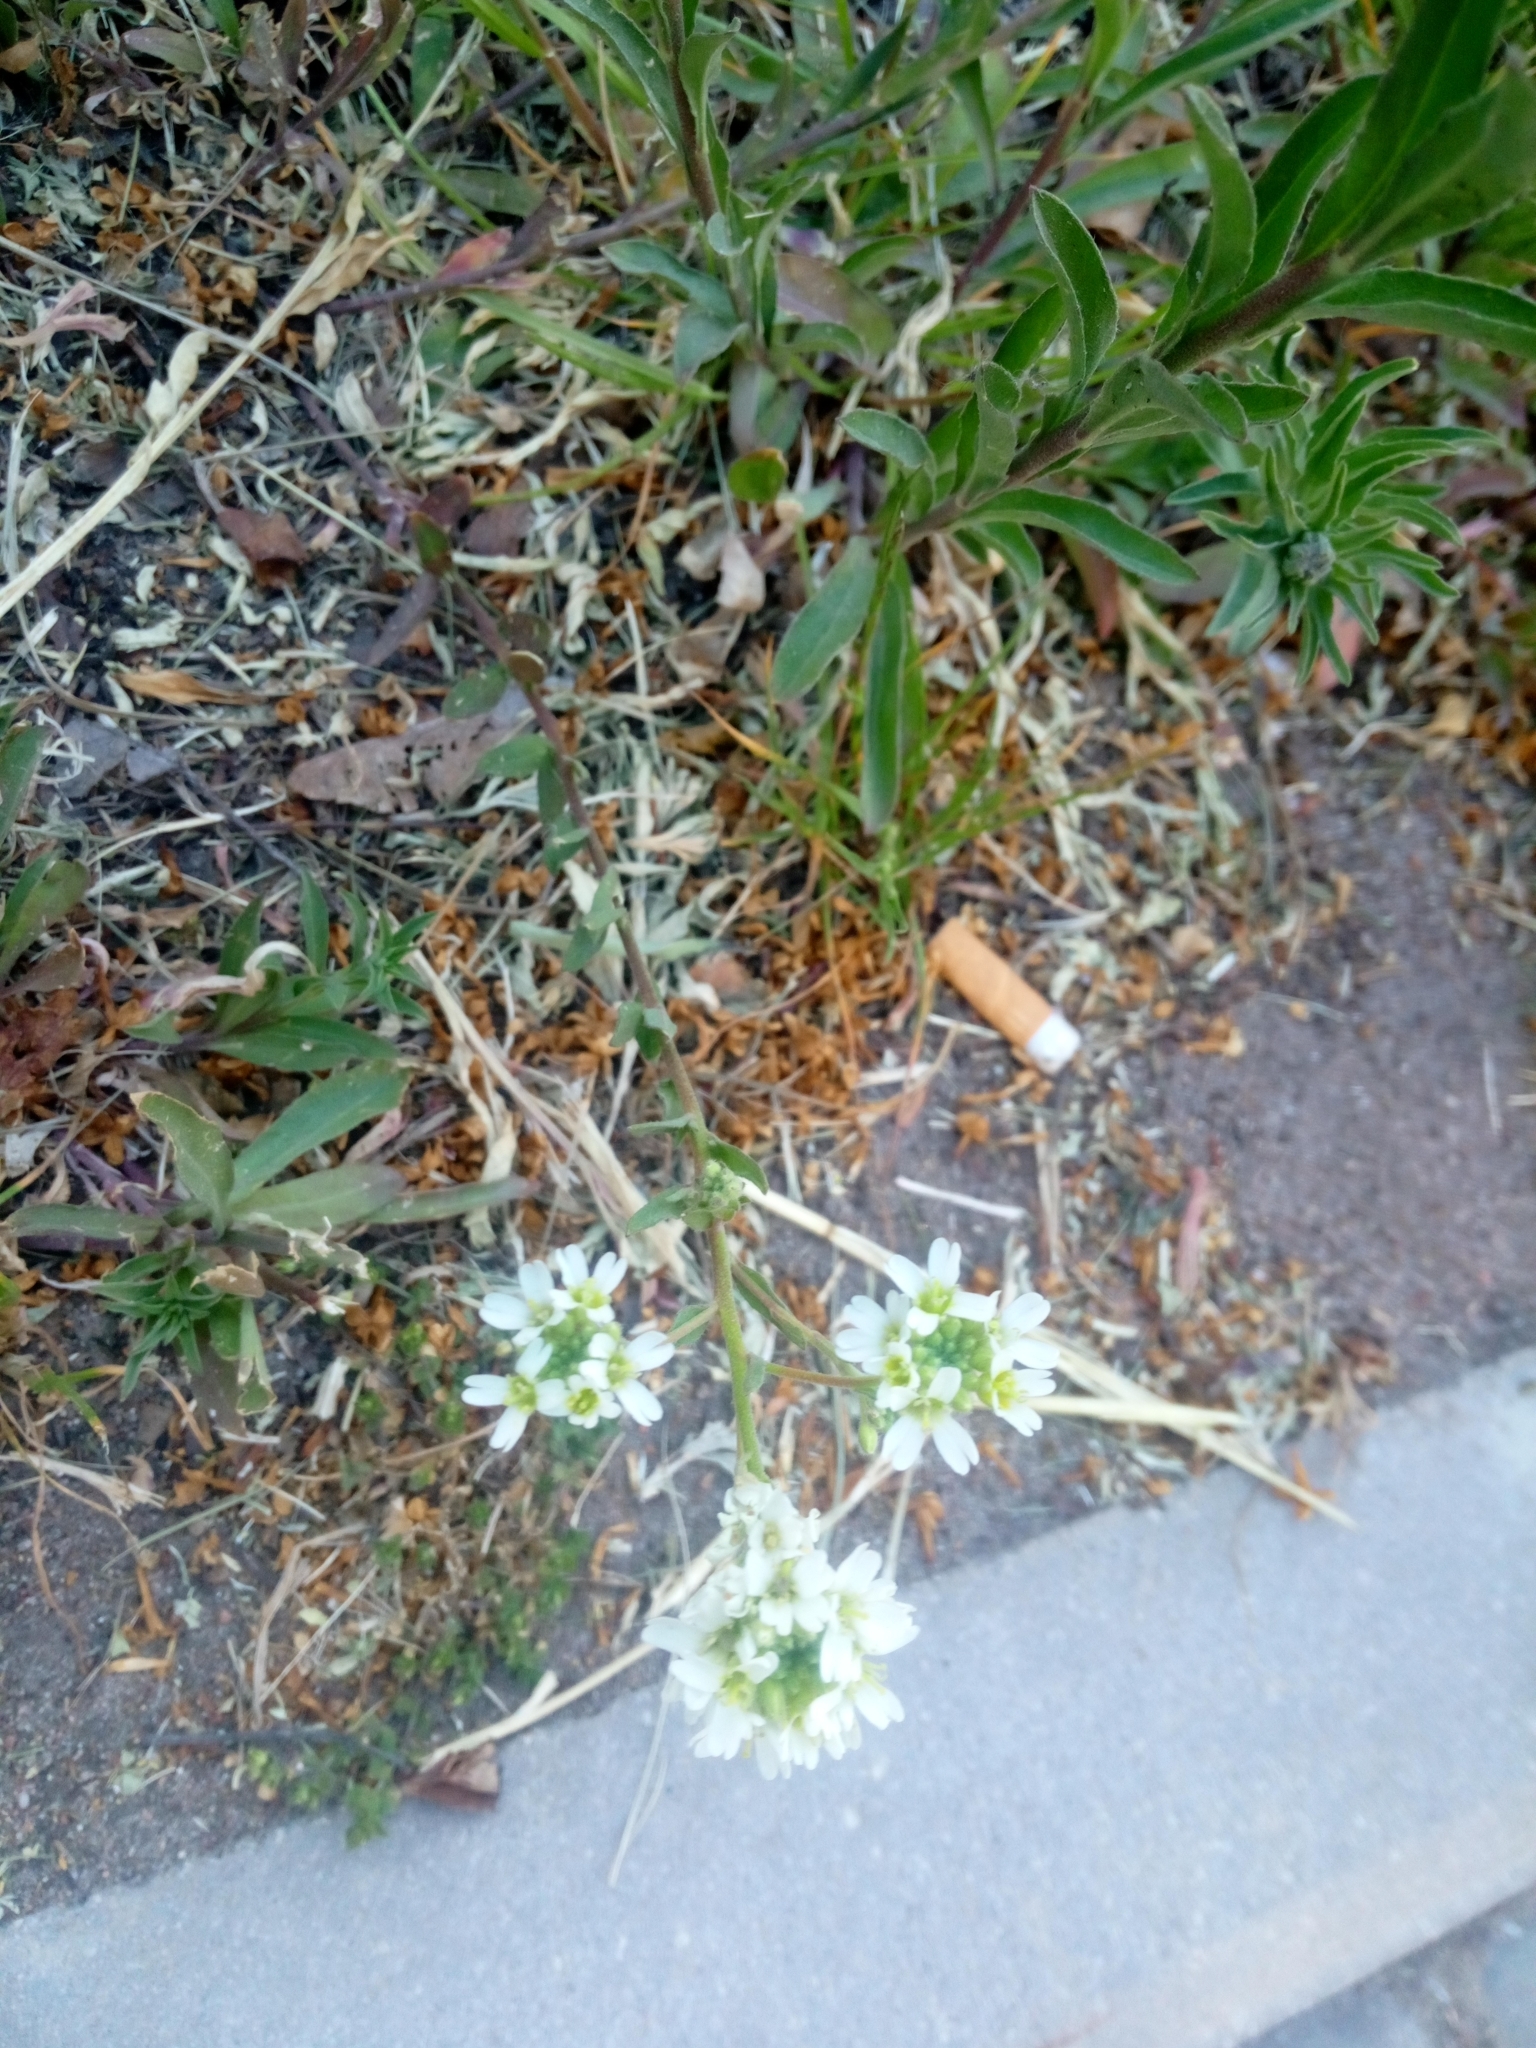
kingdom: Plantae
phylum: Tracheophyta
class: Magnoliopsida
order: Brassicales
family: Brassicaceae
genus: Berteroa
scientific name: Berteroa incana
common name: Hoary alison
